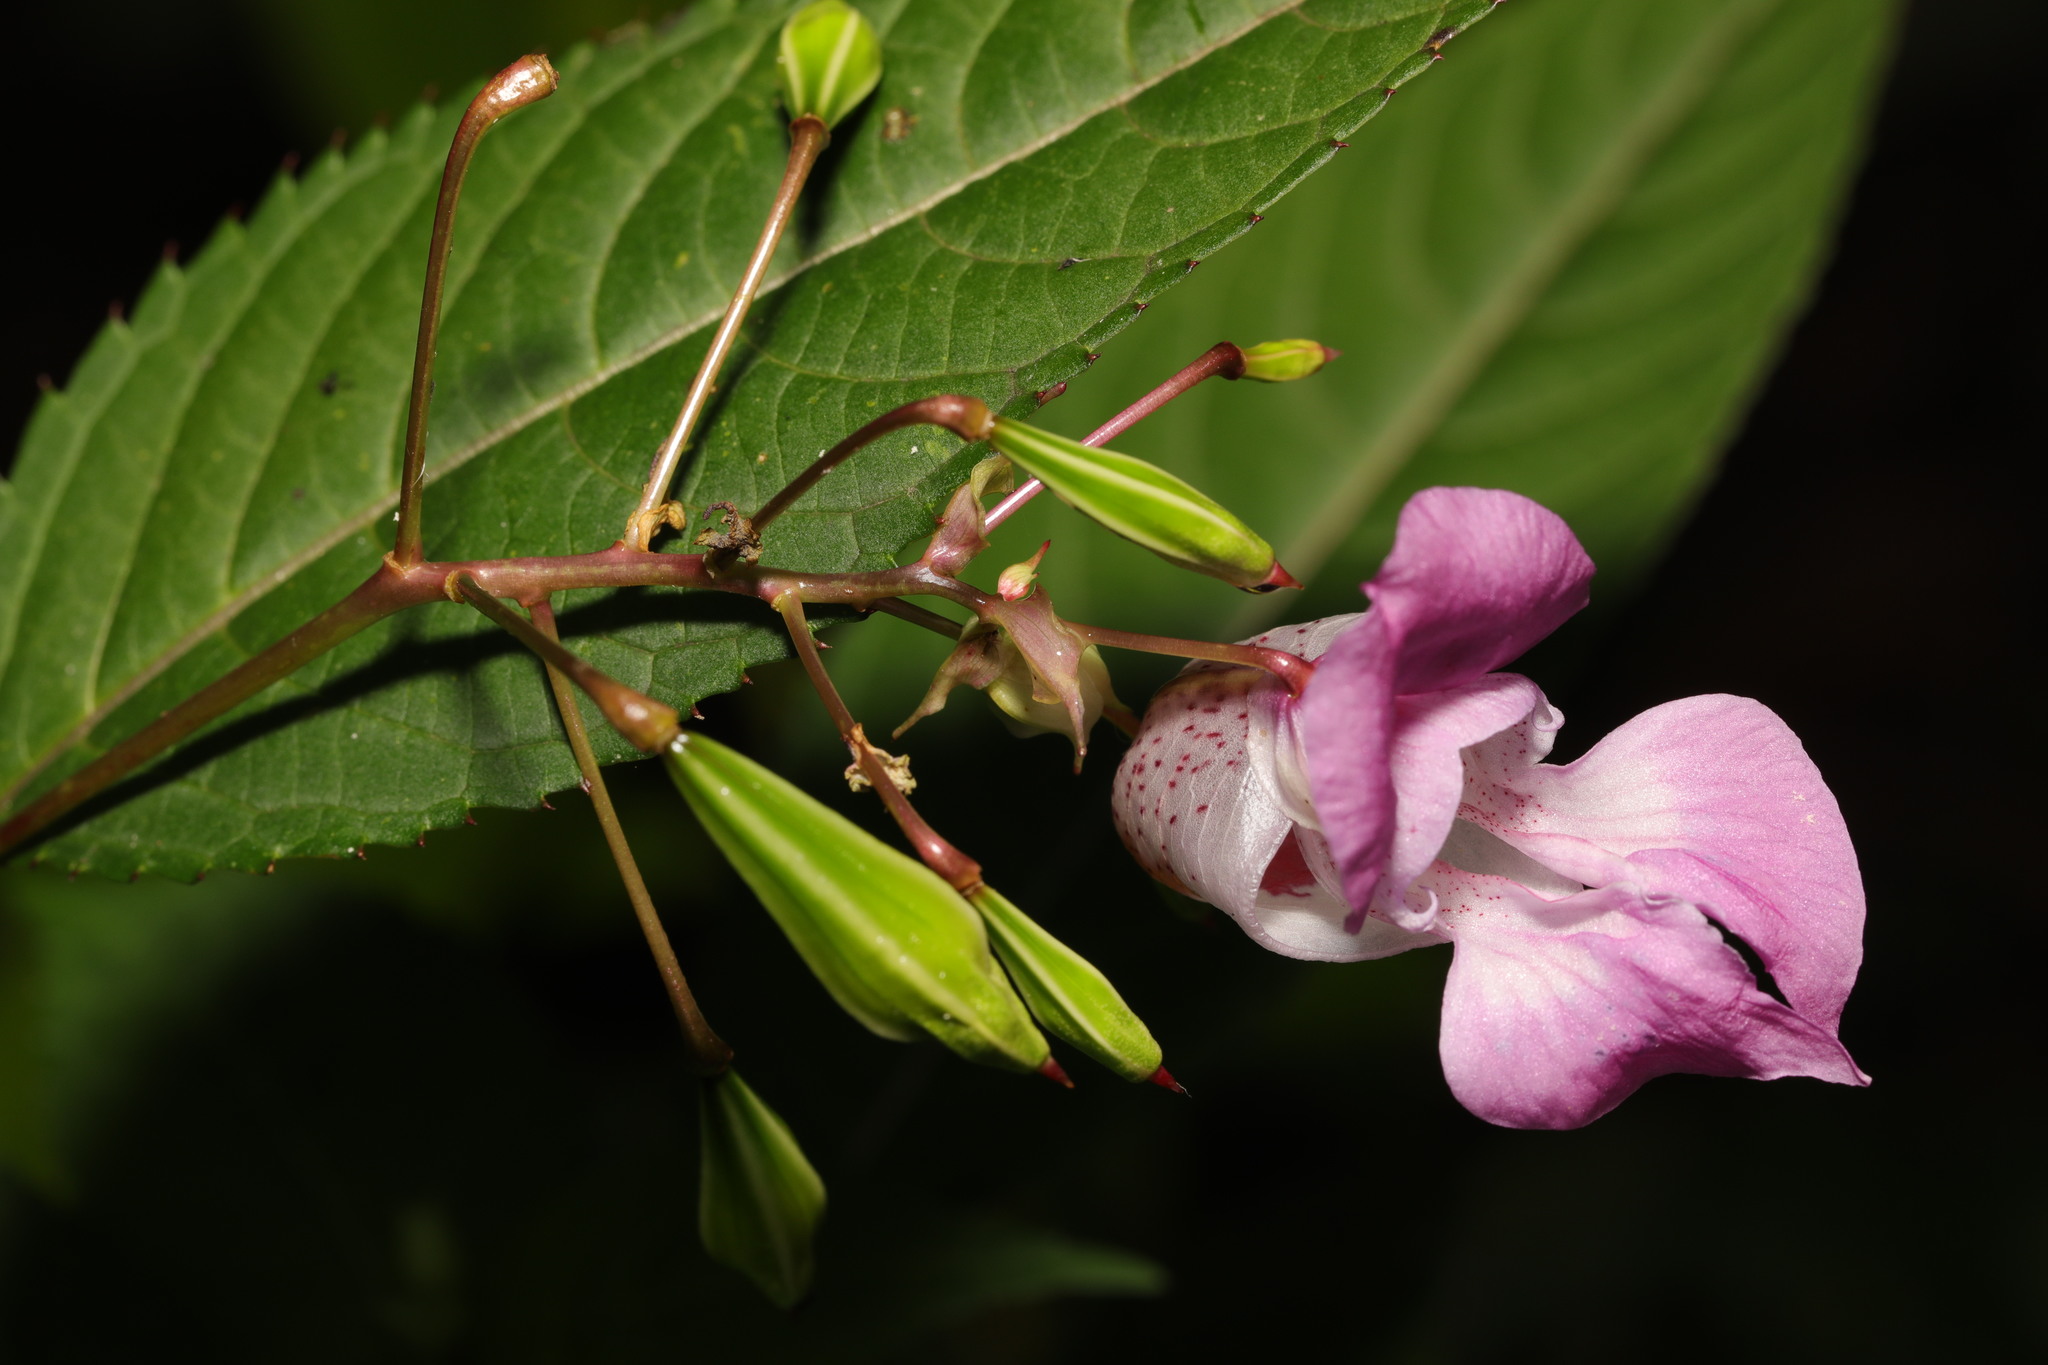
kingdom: Plantae
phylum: Tracheophyta
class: Magnoliopsida
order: Ericales
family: Balsaminaceae
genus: Impatiens
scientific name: Impatiens glandulifera
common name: Himalayan balsam
